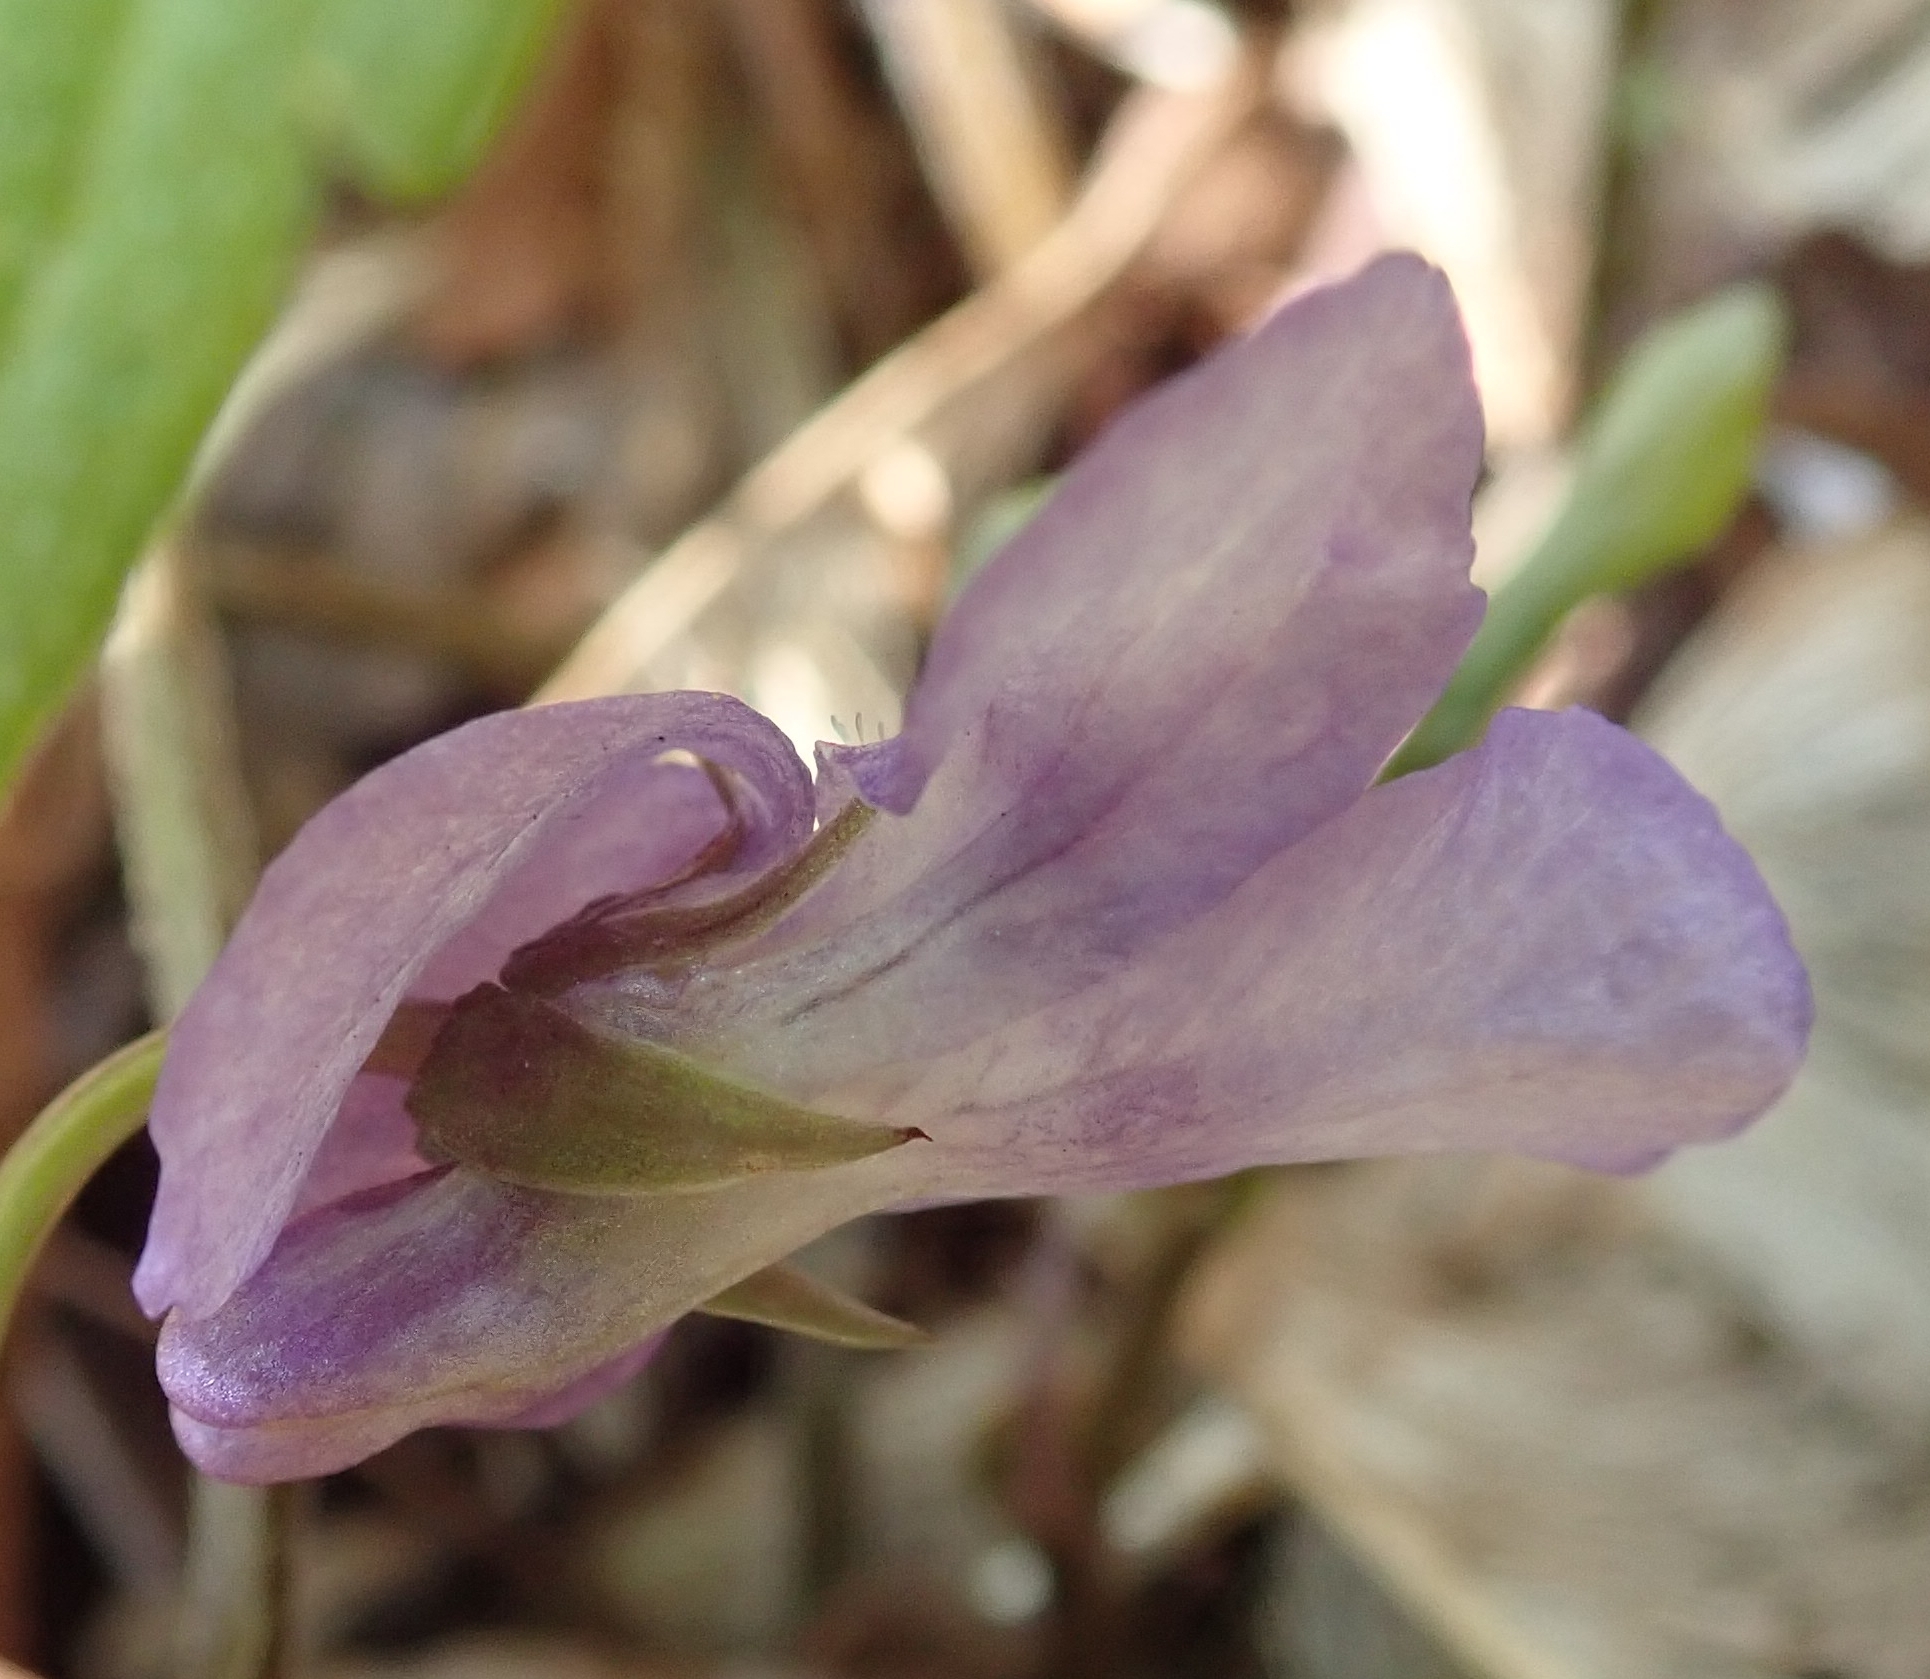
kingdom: Plantae
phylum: Tracheophyta
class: Magnoliopsida
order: Malpighiales
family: Violaceae
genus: Viola
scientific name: Viola reichenbachiana
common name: Early dog-violet
